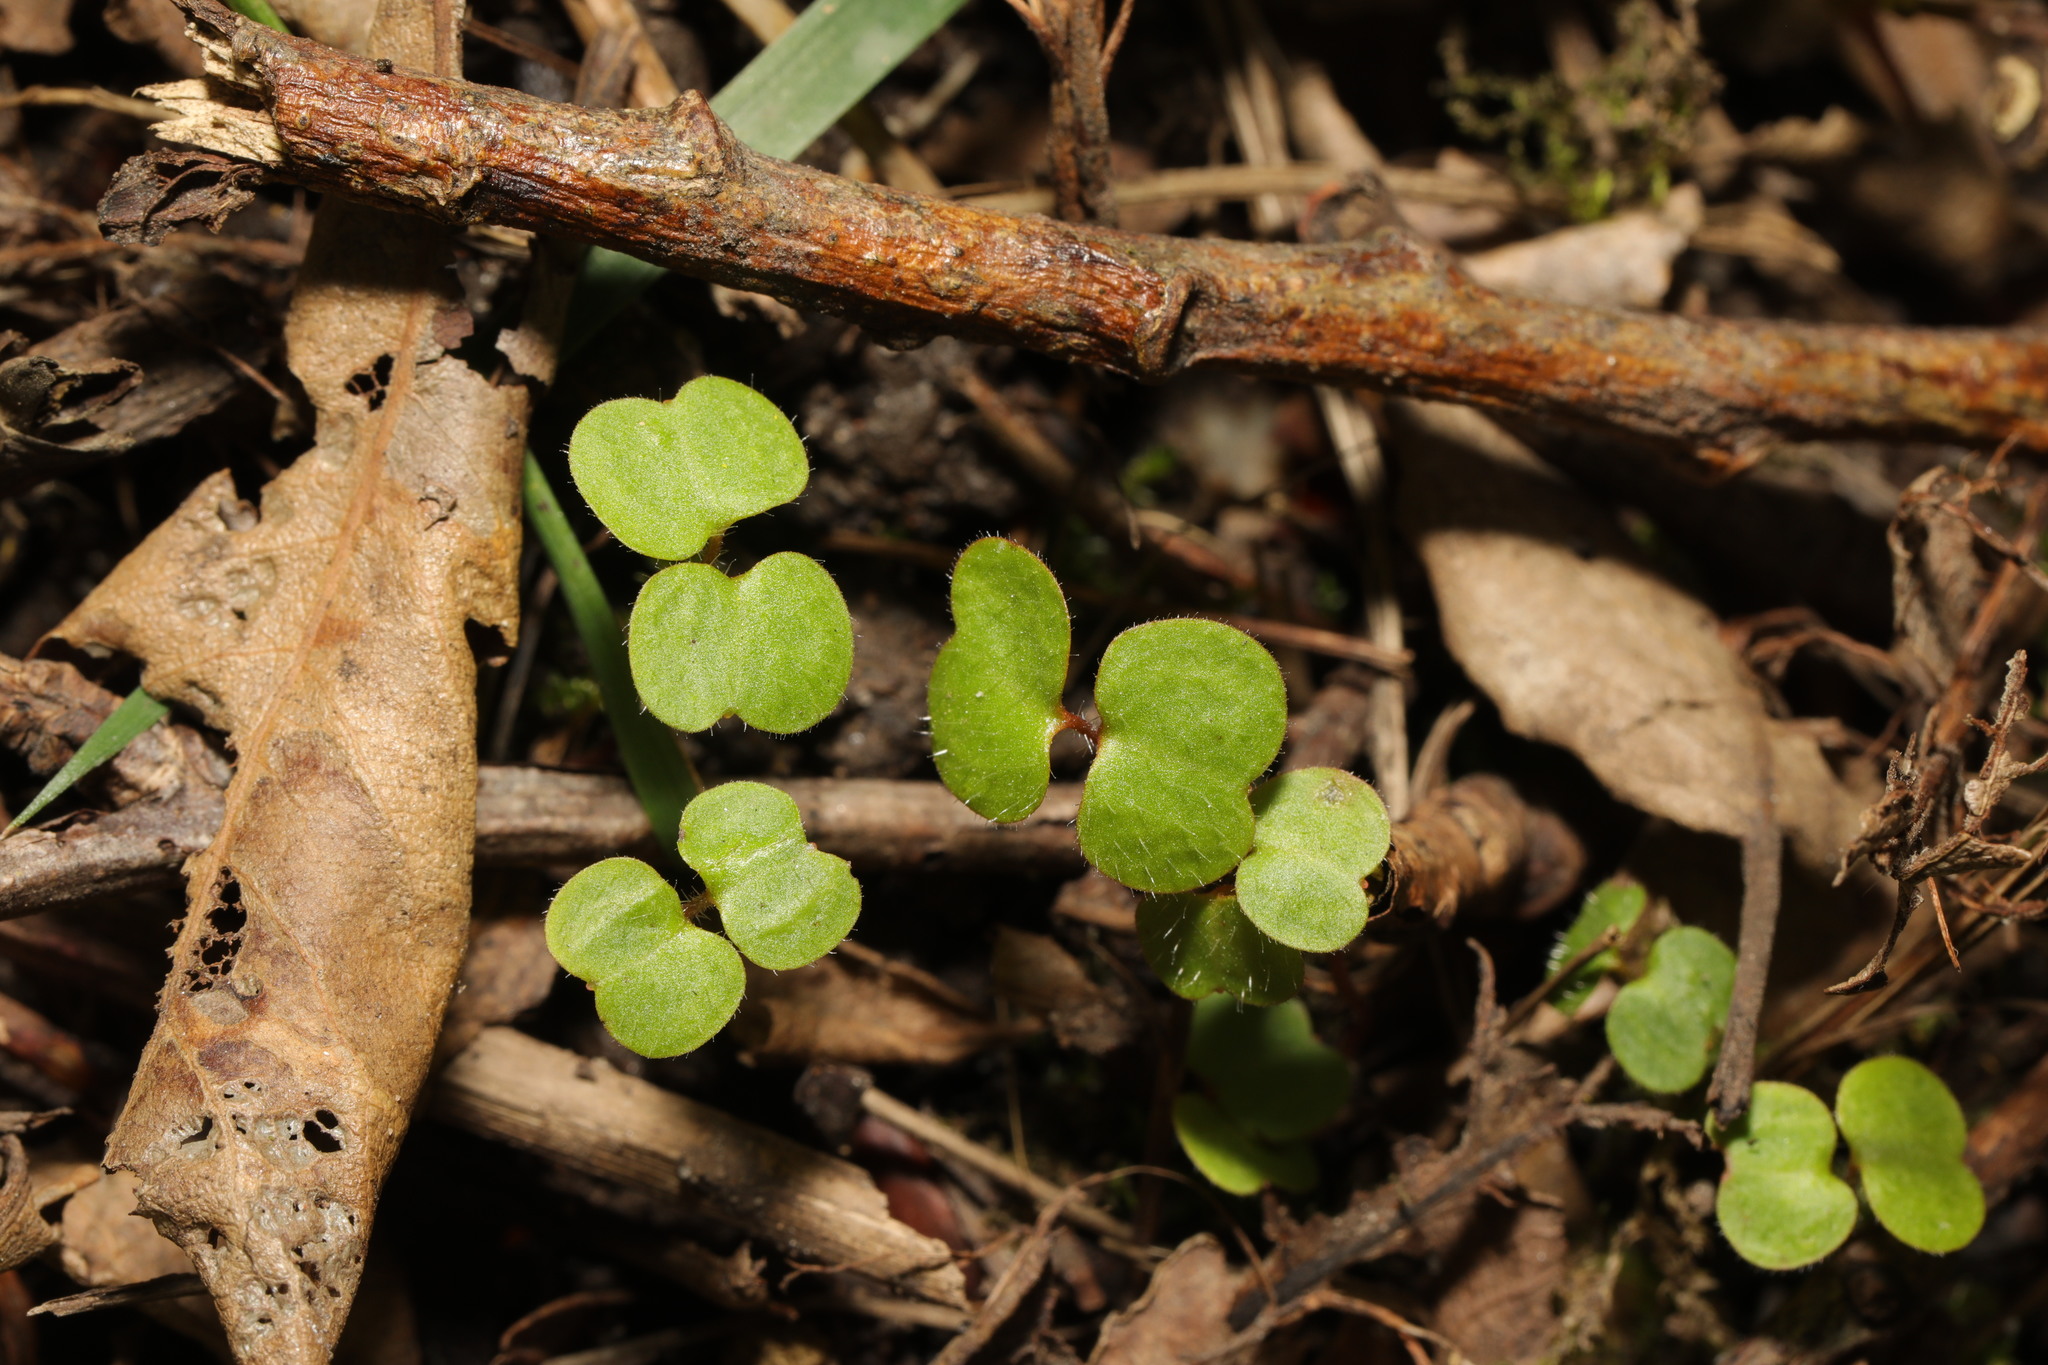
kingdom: Plantae
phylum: Tracheophyta
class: Magnoliopsida
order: Ericales
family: Balsaminaceae
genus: Impatiens
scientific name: Impatiens glandulifera
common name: Himalayan balsam
